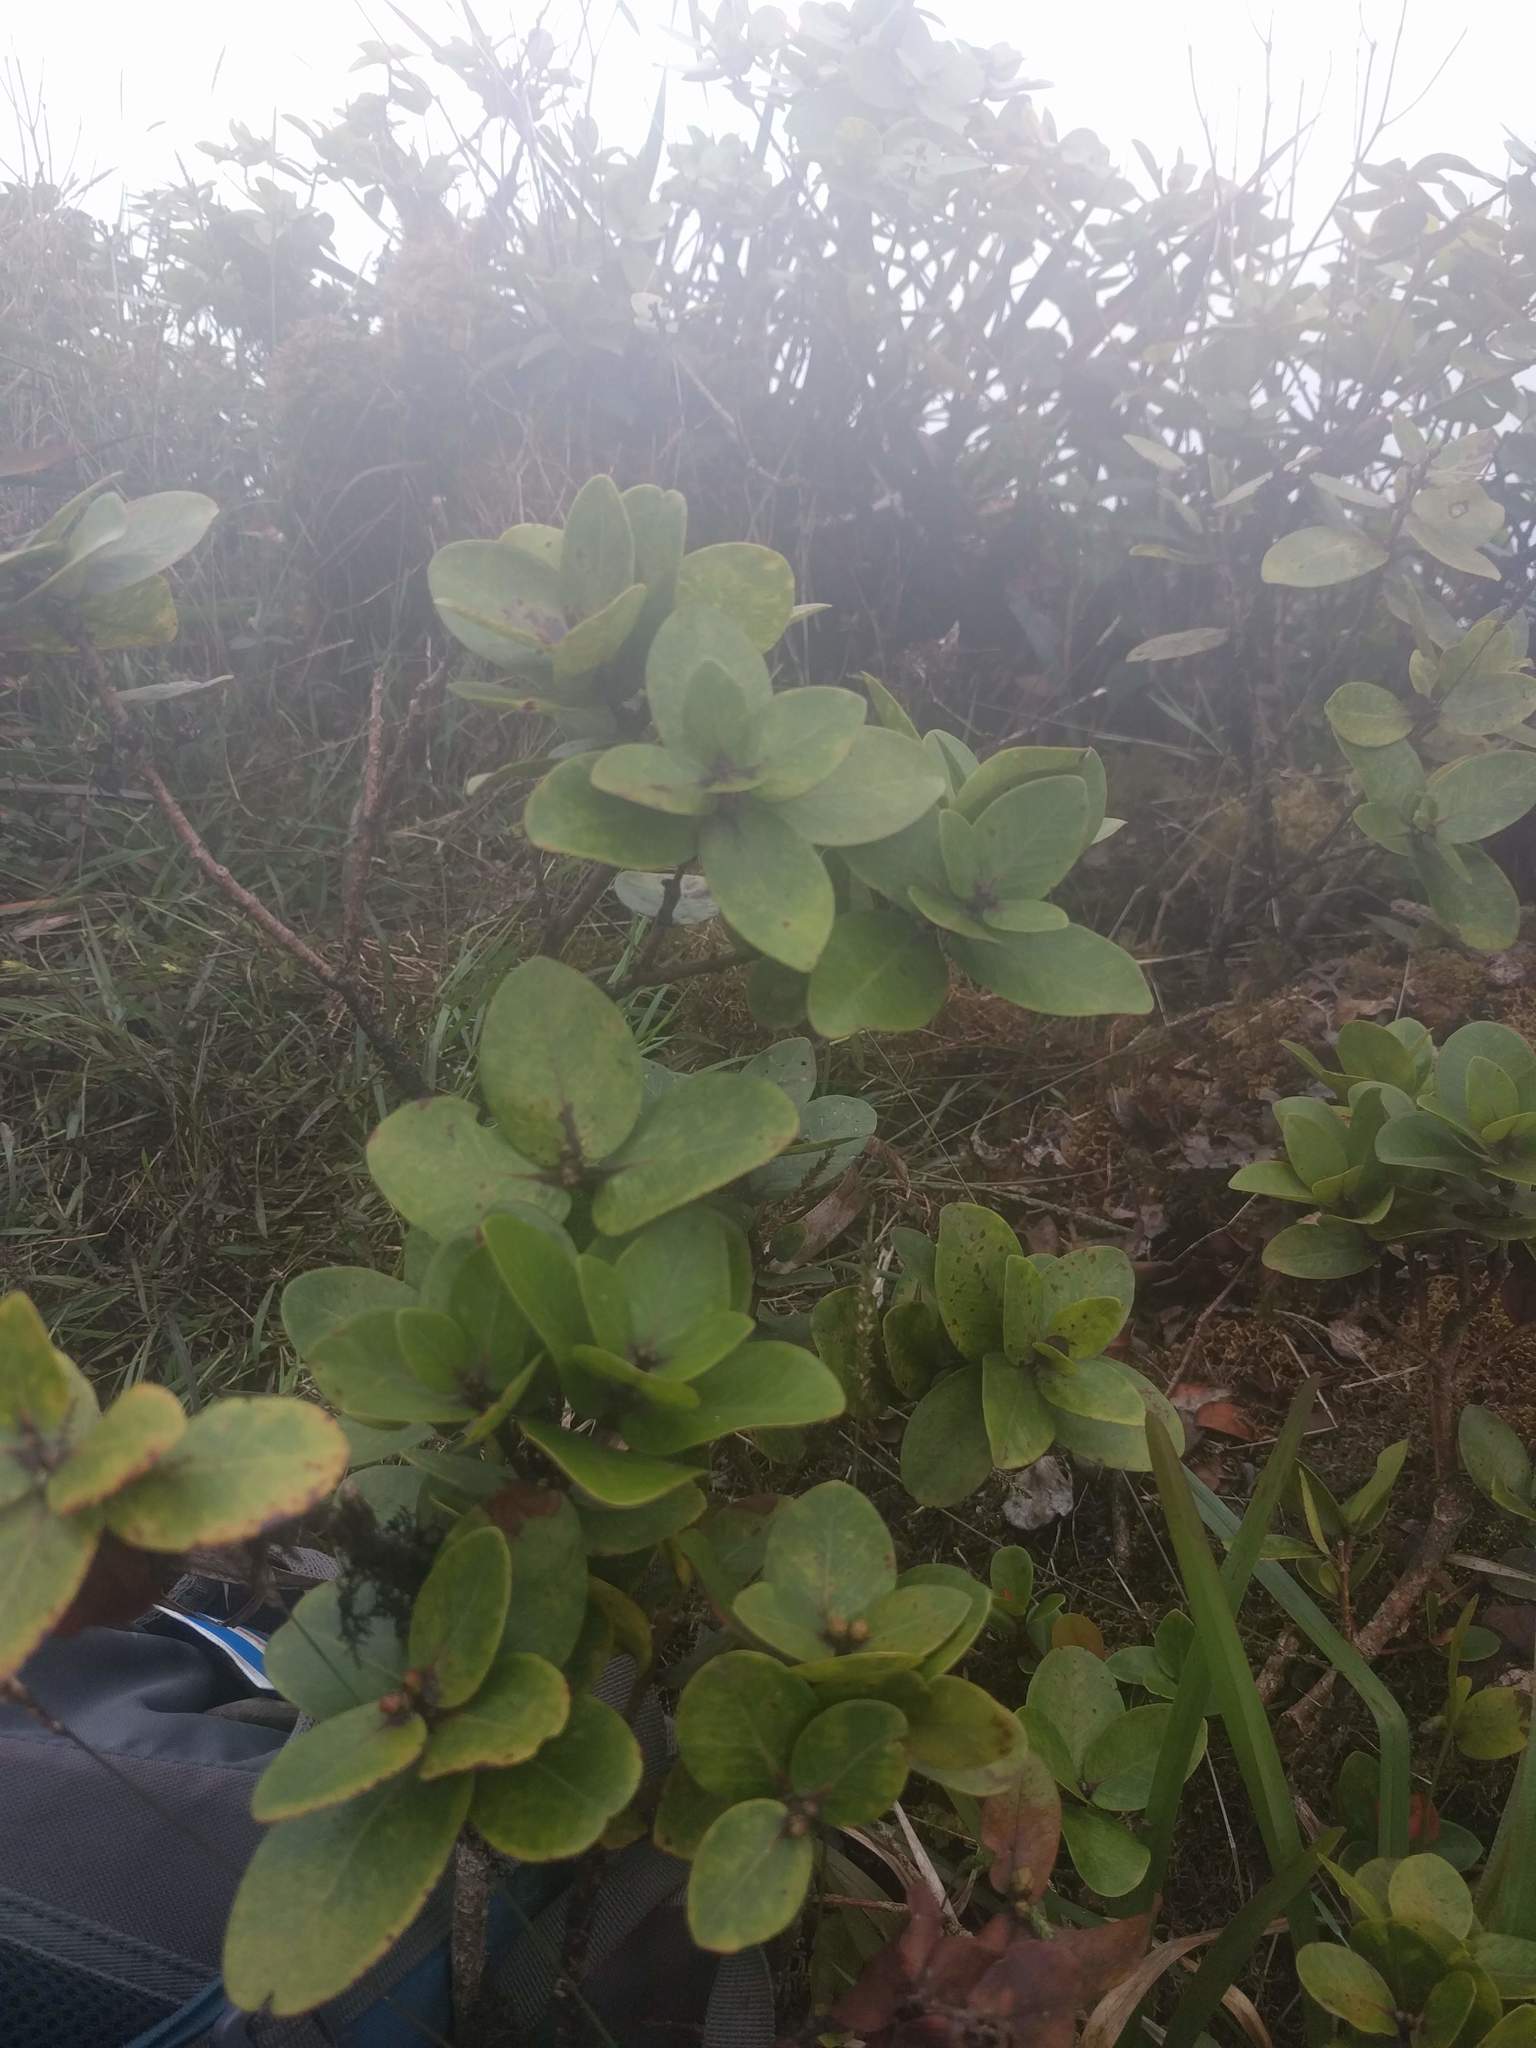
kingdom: Plantae
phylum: Tracheophyta
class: Magnoliopsida
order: Myrtales
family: Myrtaceae
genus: Metrosideros
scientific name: Metrosideros polymorpha
